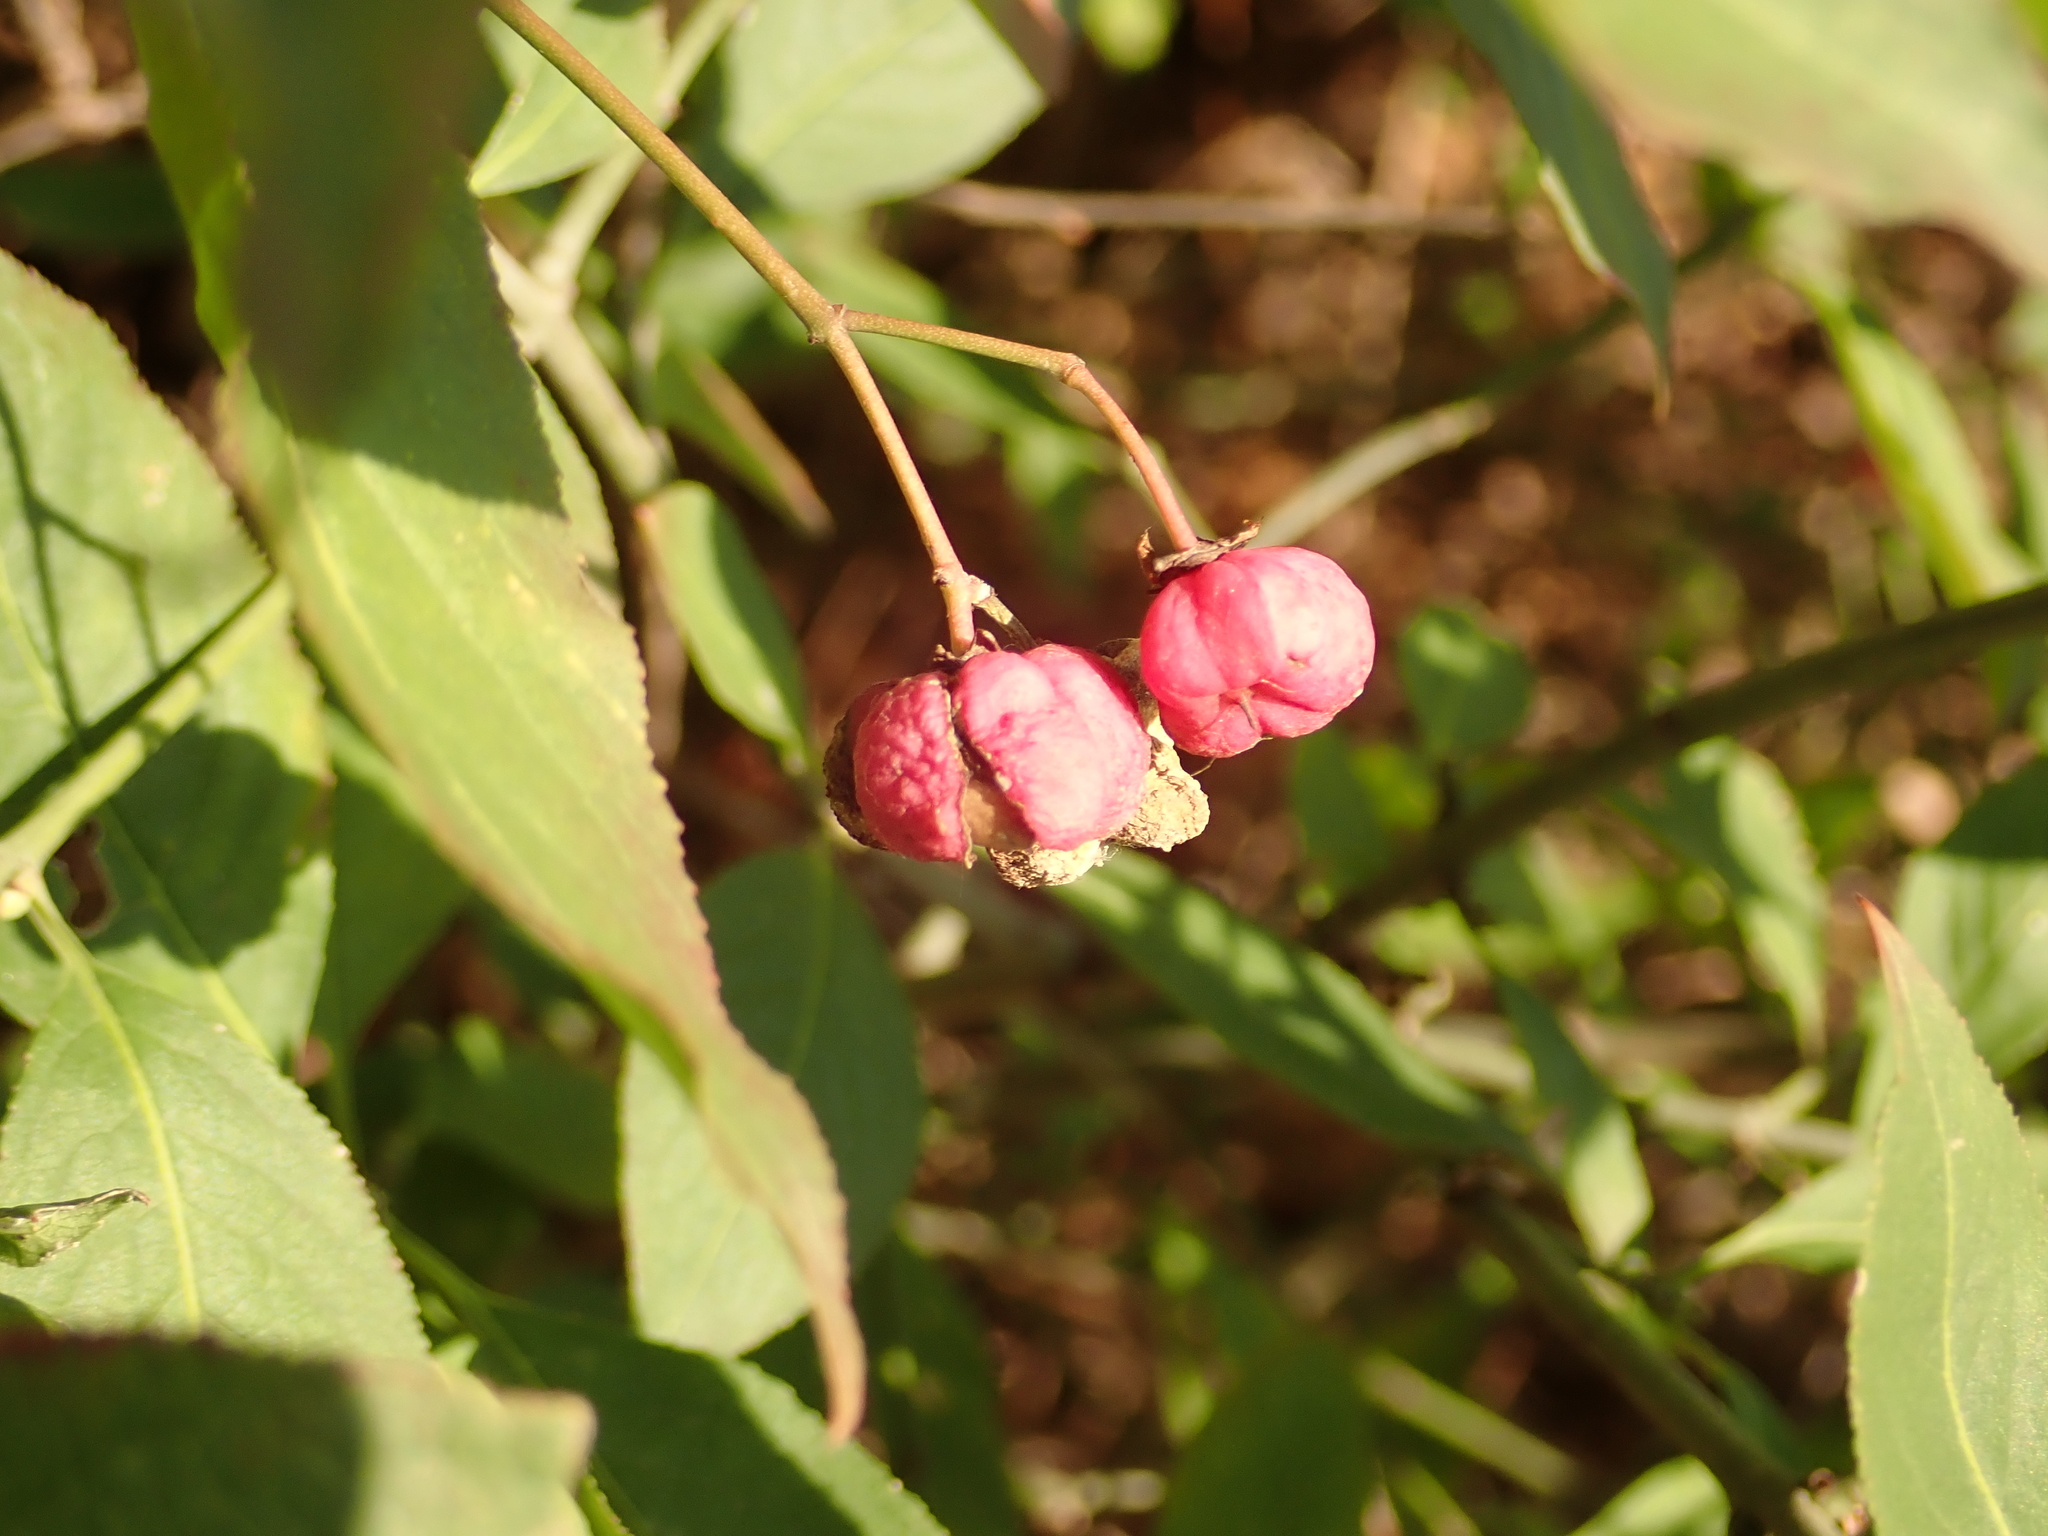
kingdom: Plantae
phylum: Tracheophyta
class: Magnoliopsida
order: Celastrales
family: Celastraceae
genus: Euonymus
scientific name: Euonymus europaeus
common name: Spindle
